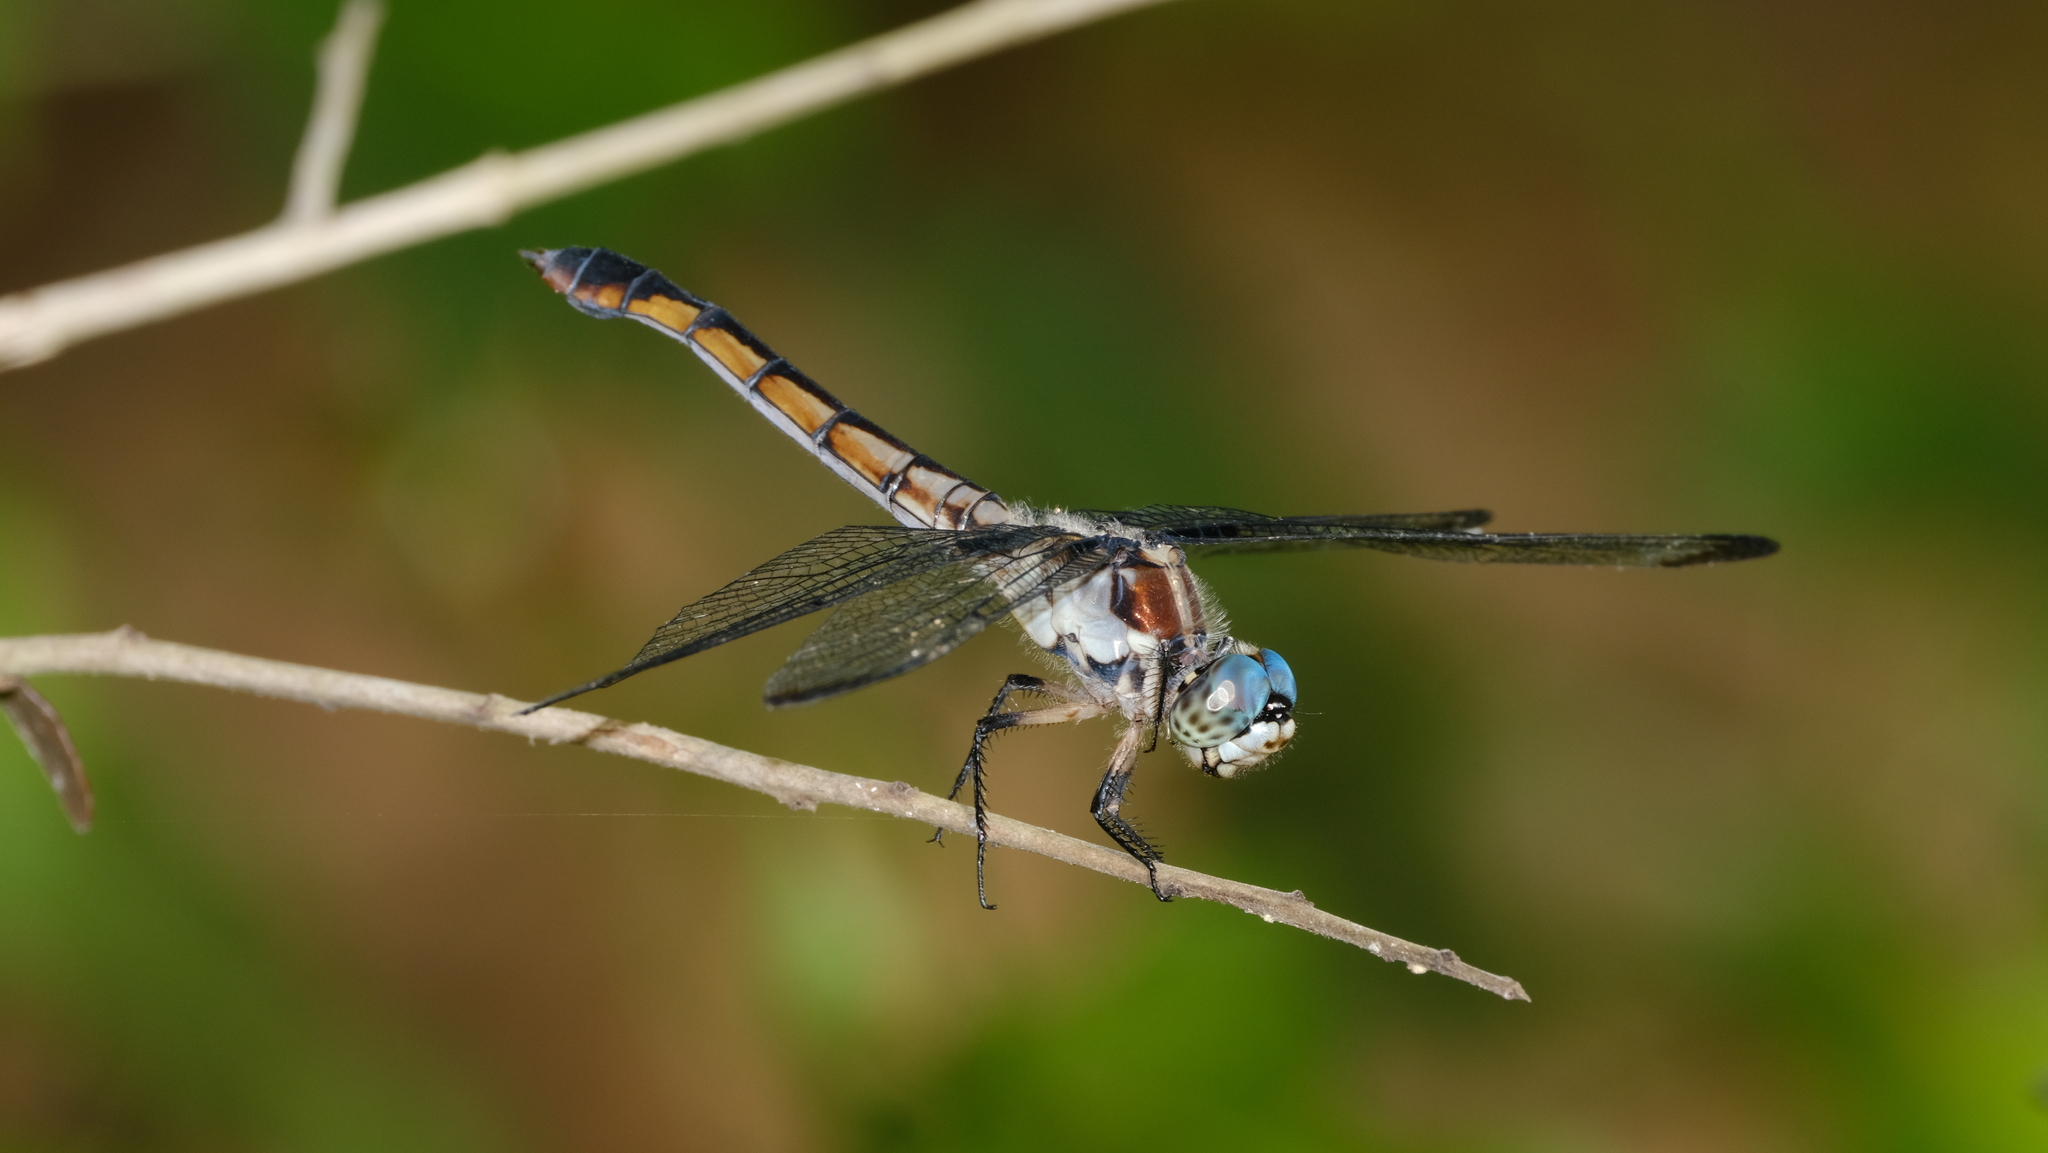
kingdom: Animalia
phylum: Arthropoda
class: Insecta
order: Odonata
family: Libellulidae
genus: Libellula
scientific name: Libellula vibrans
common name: Great blue skimmer
